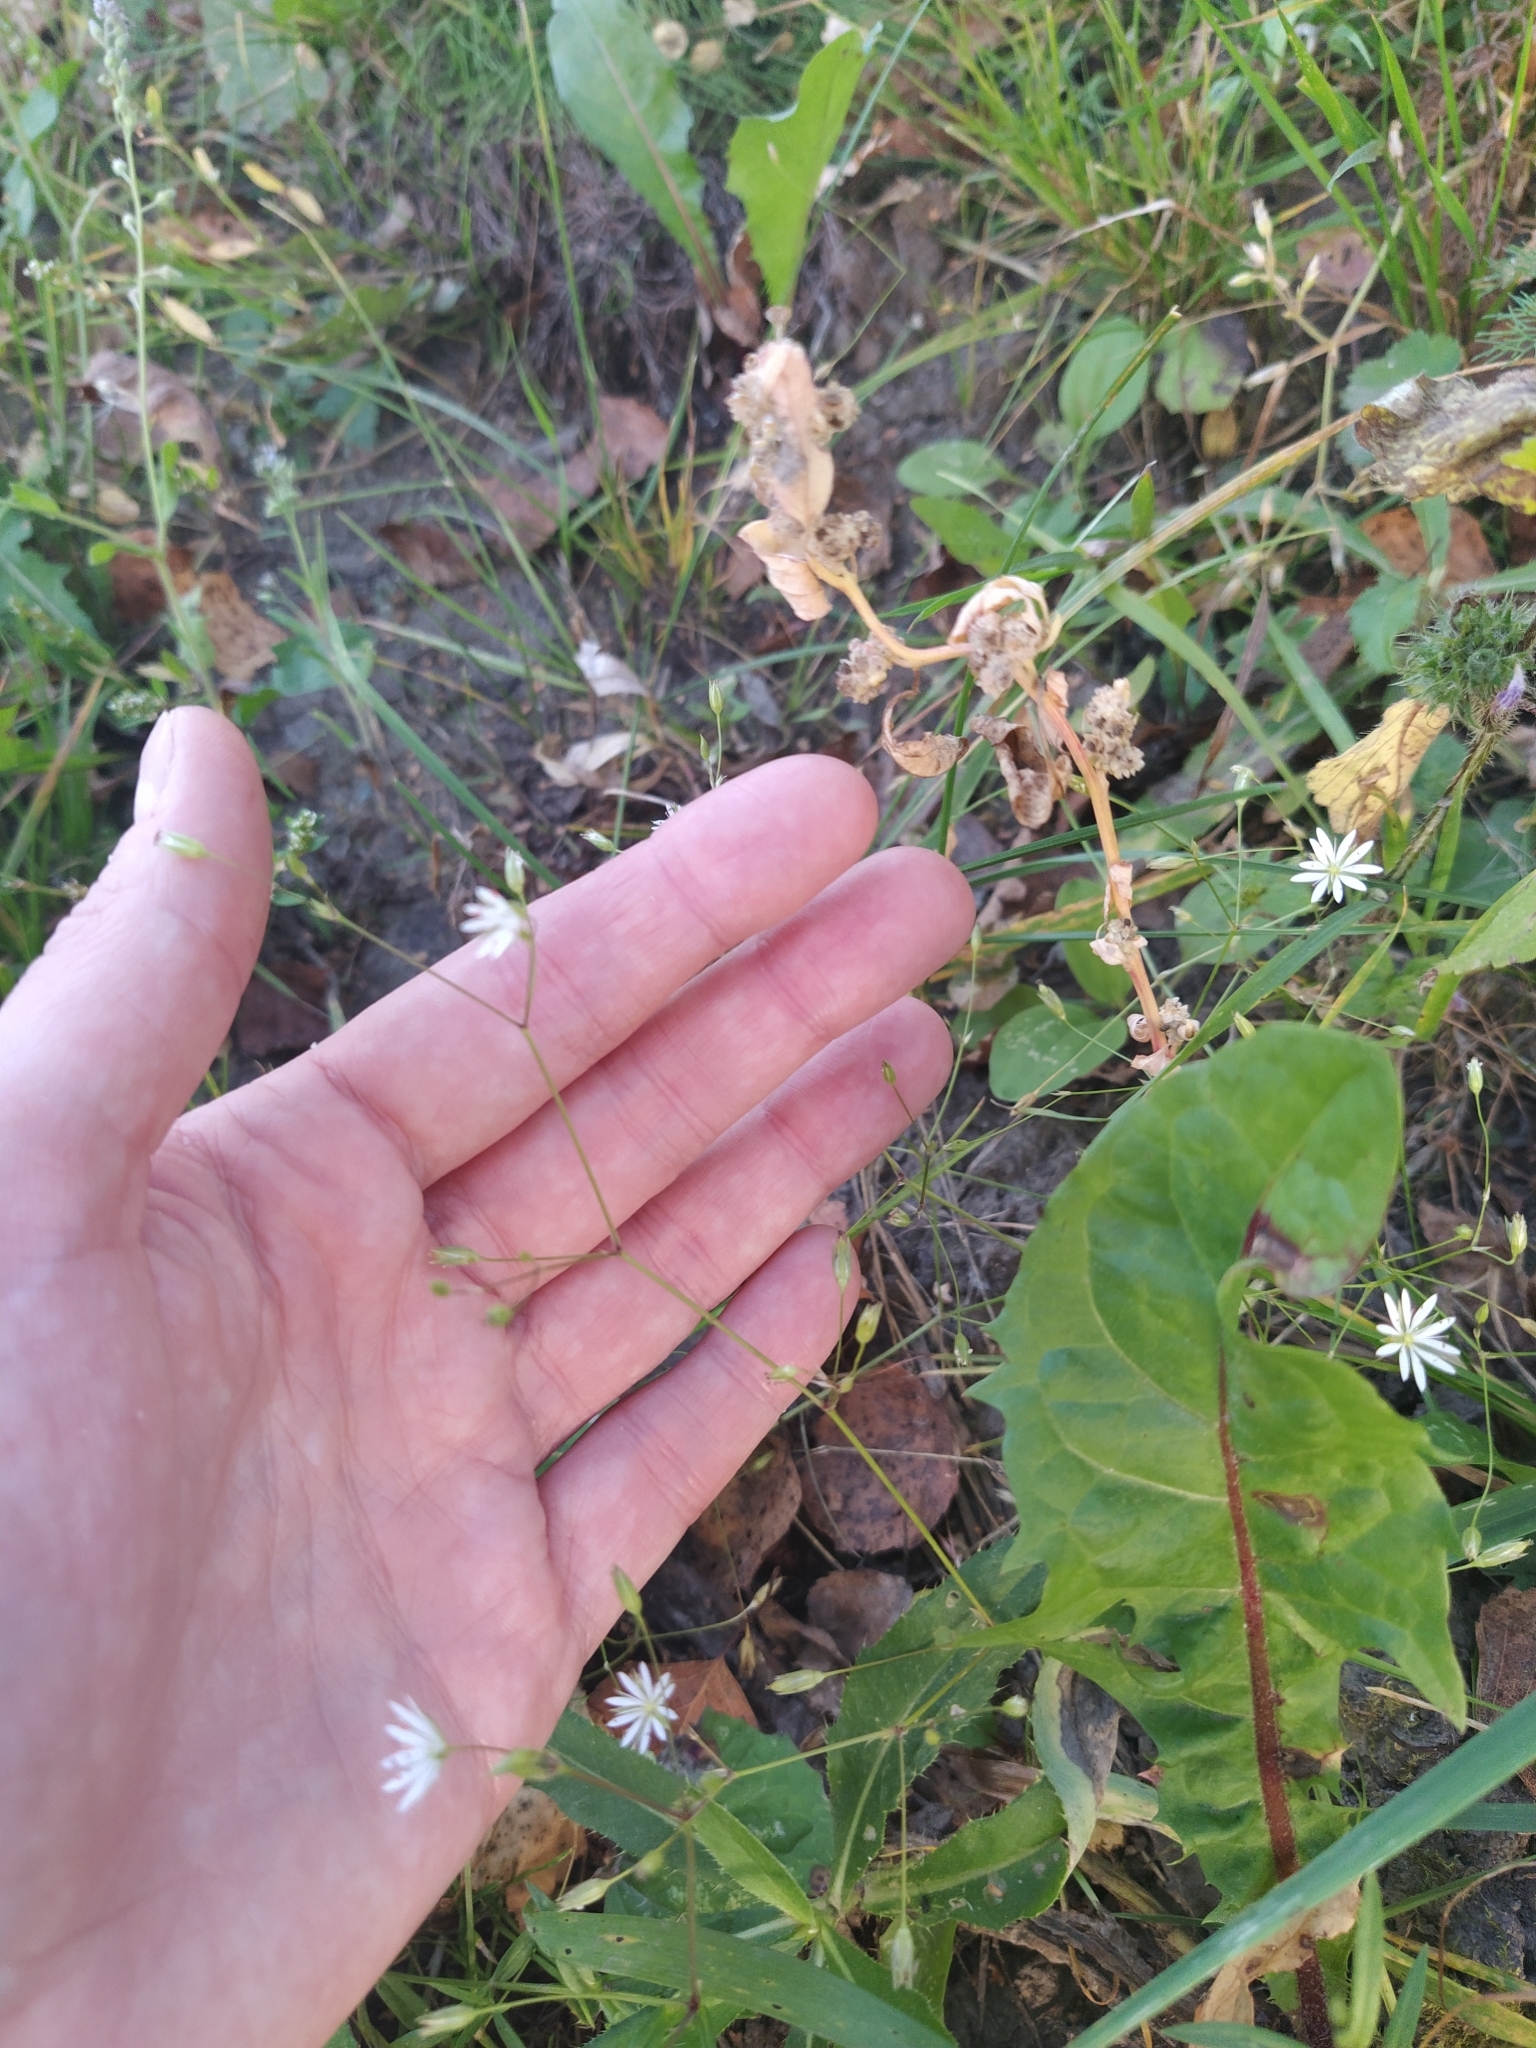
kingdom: Plantae
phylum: Tracheophyta
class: Magnoliopsida
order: Caryophyllales
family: Caryophyllaceae
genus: Stellaria
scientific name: Stellaria graminea
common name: Grass-like starwort
